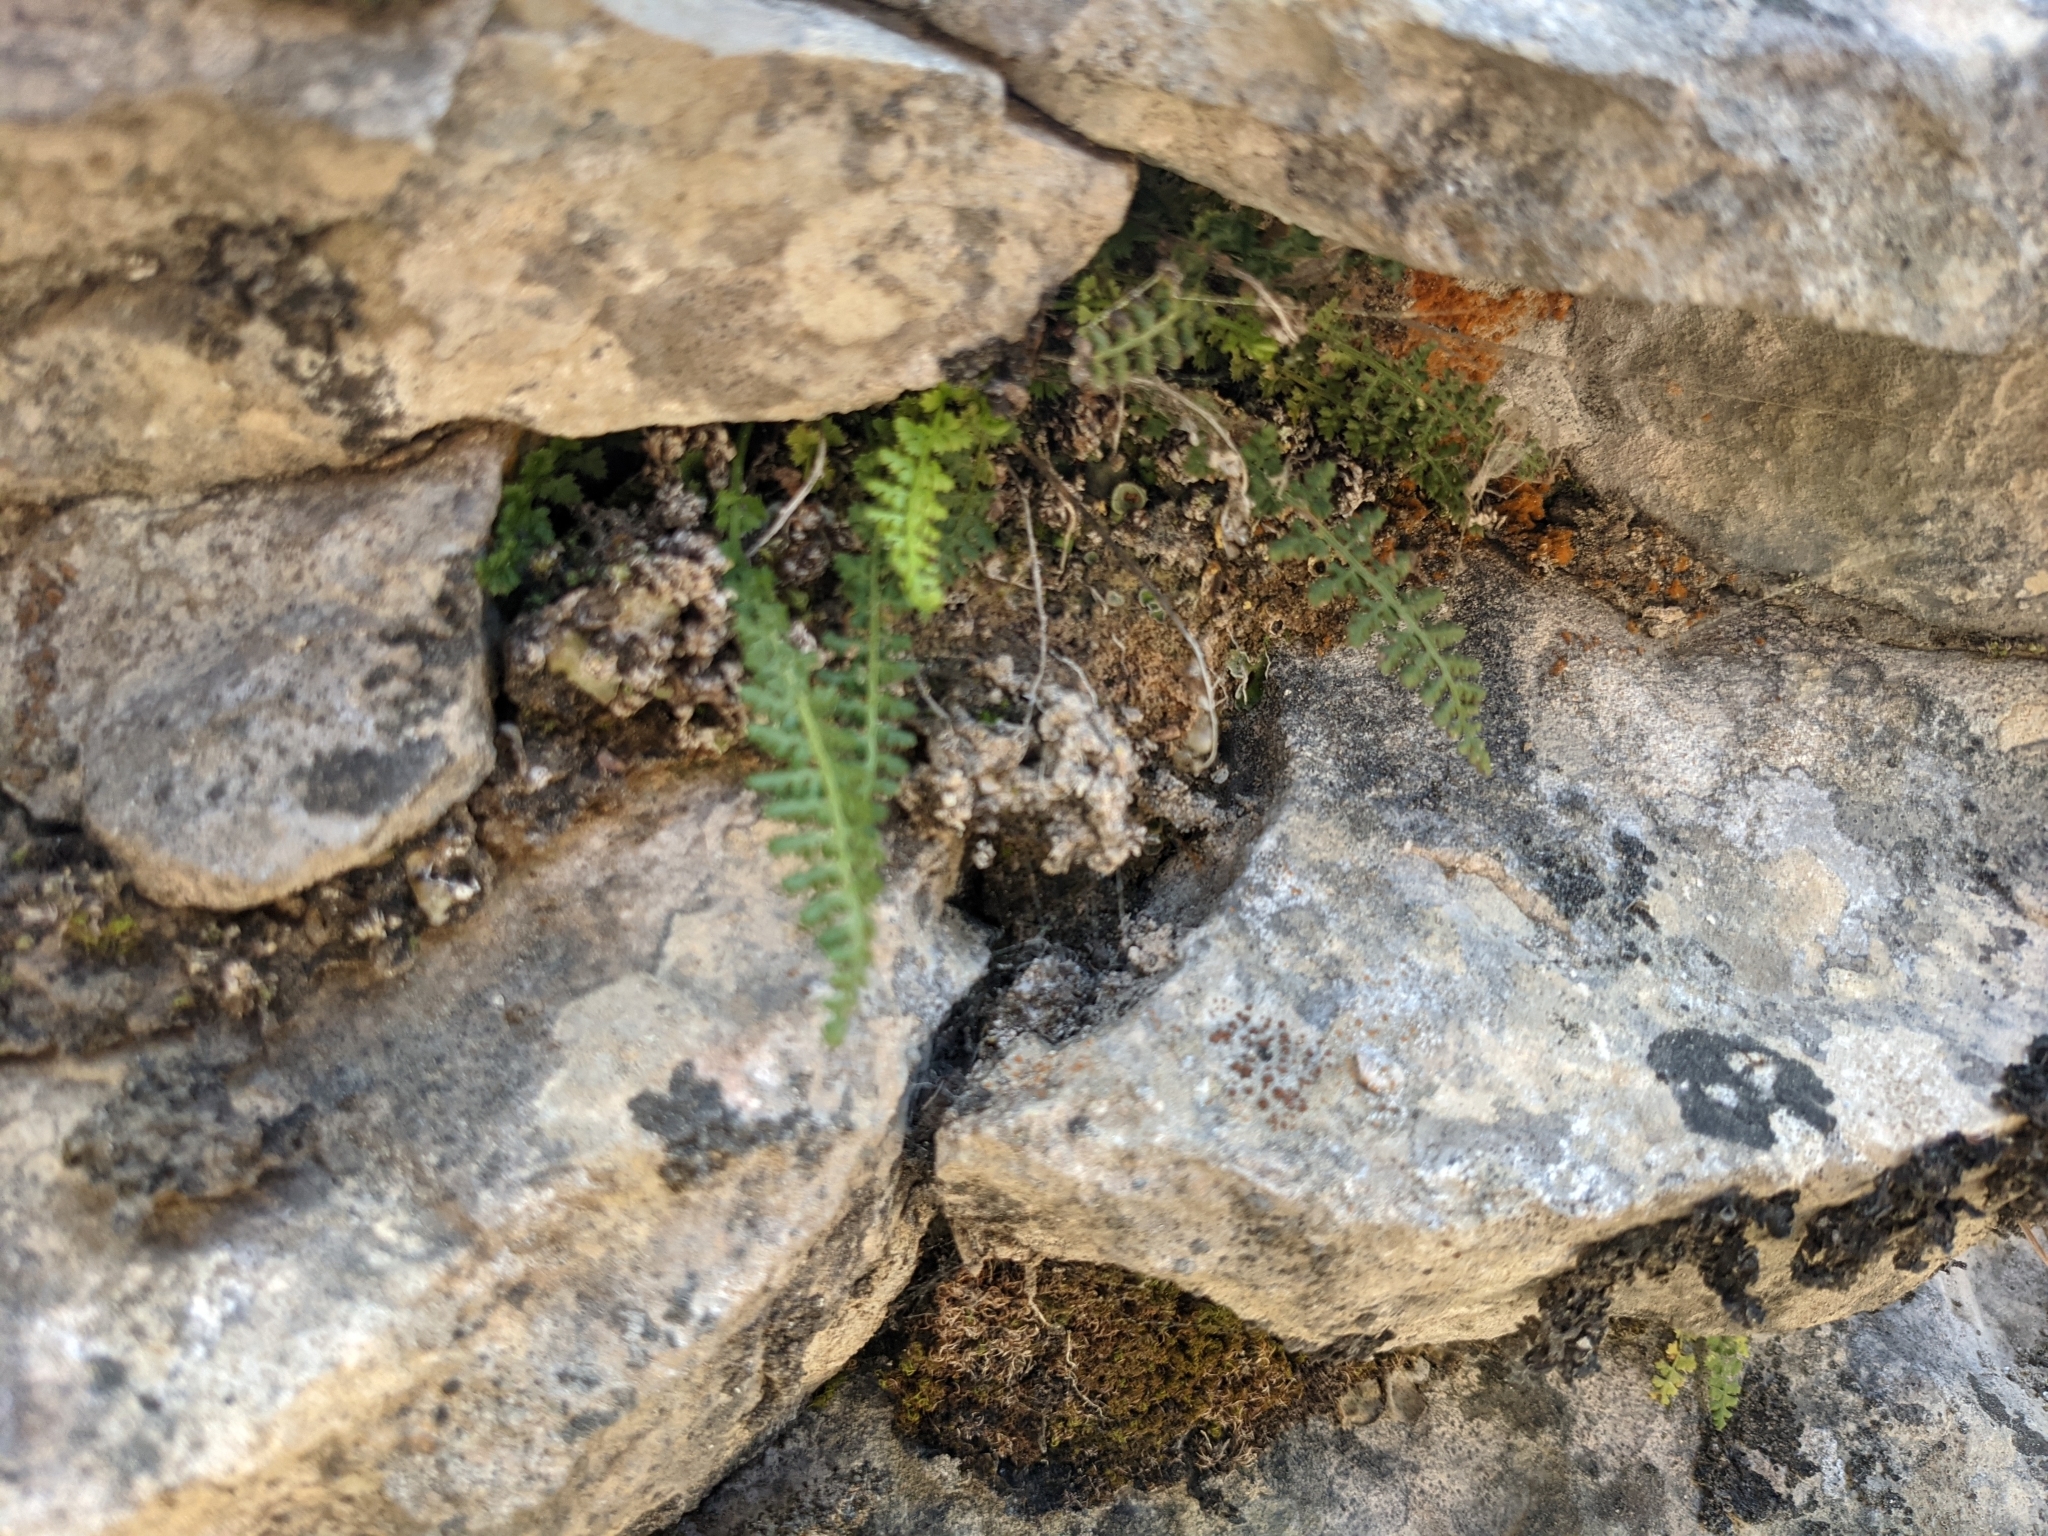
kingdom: Plantae
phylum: Tracheophyta
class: Polypodiopsida
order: Polypodiales
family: Aspleniaceae
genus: Asplenium
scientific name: Asplenium fontanum
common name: Fountain spleenwort
